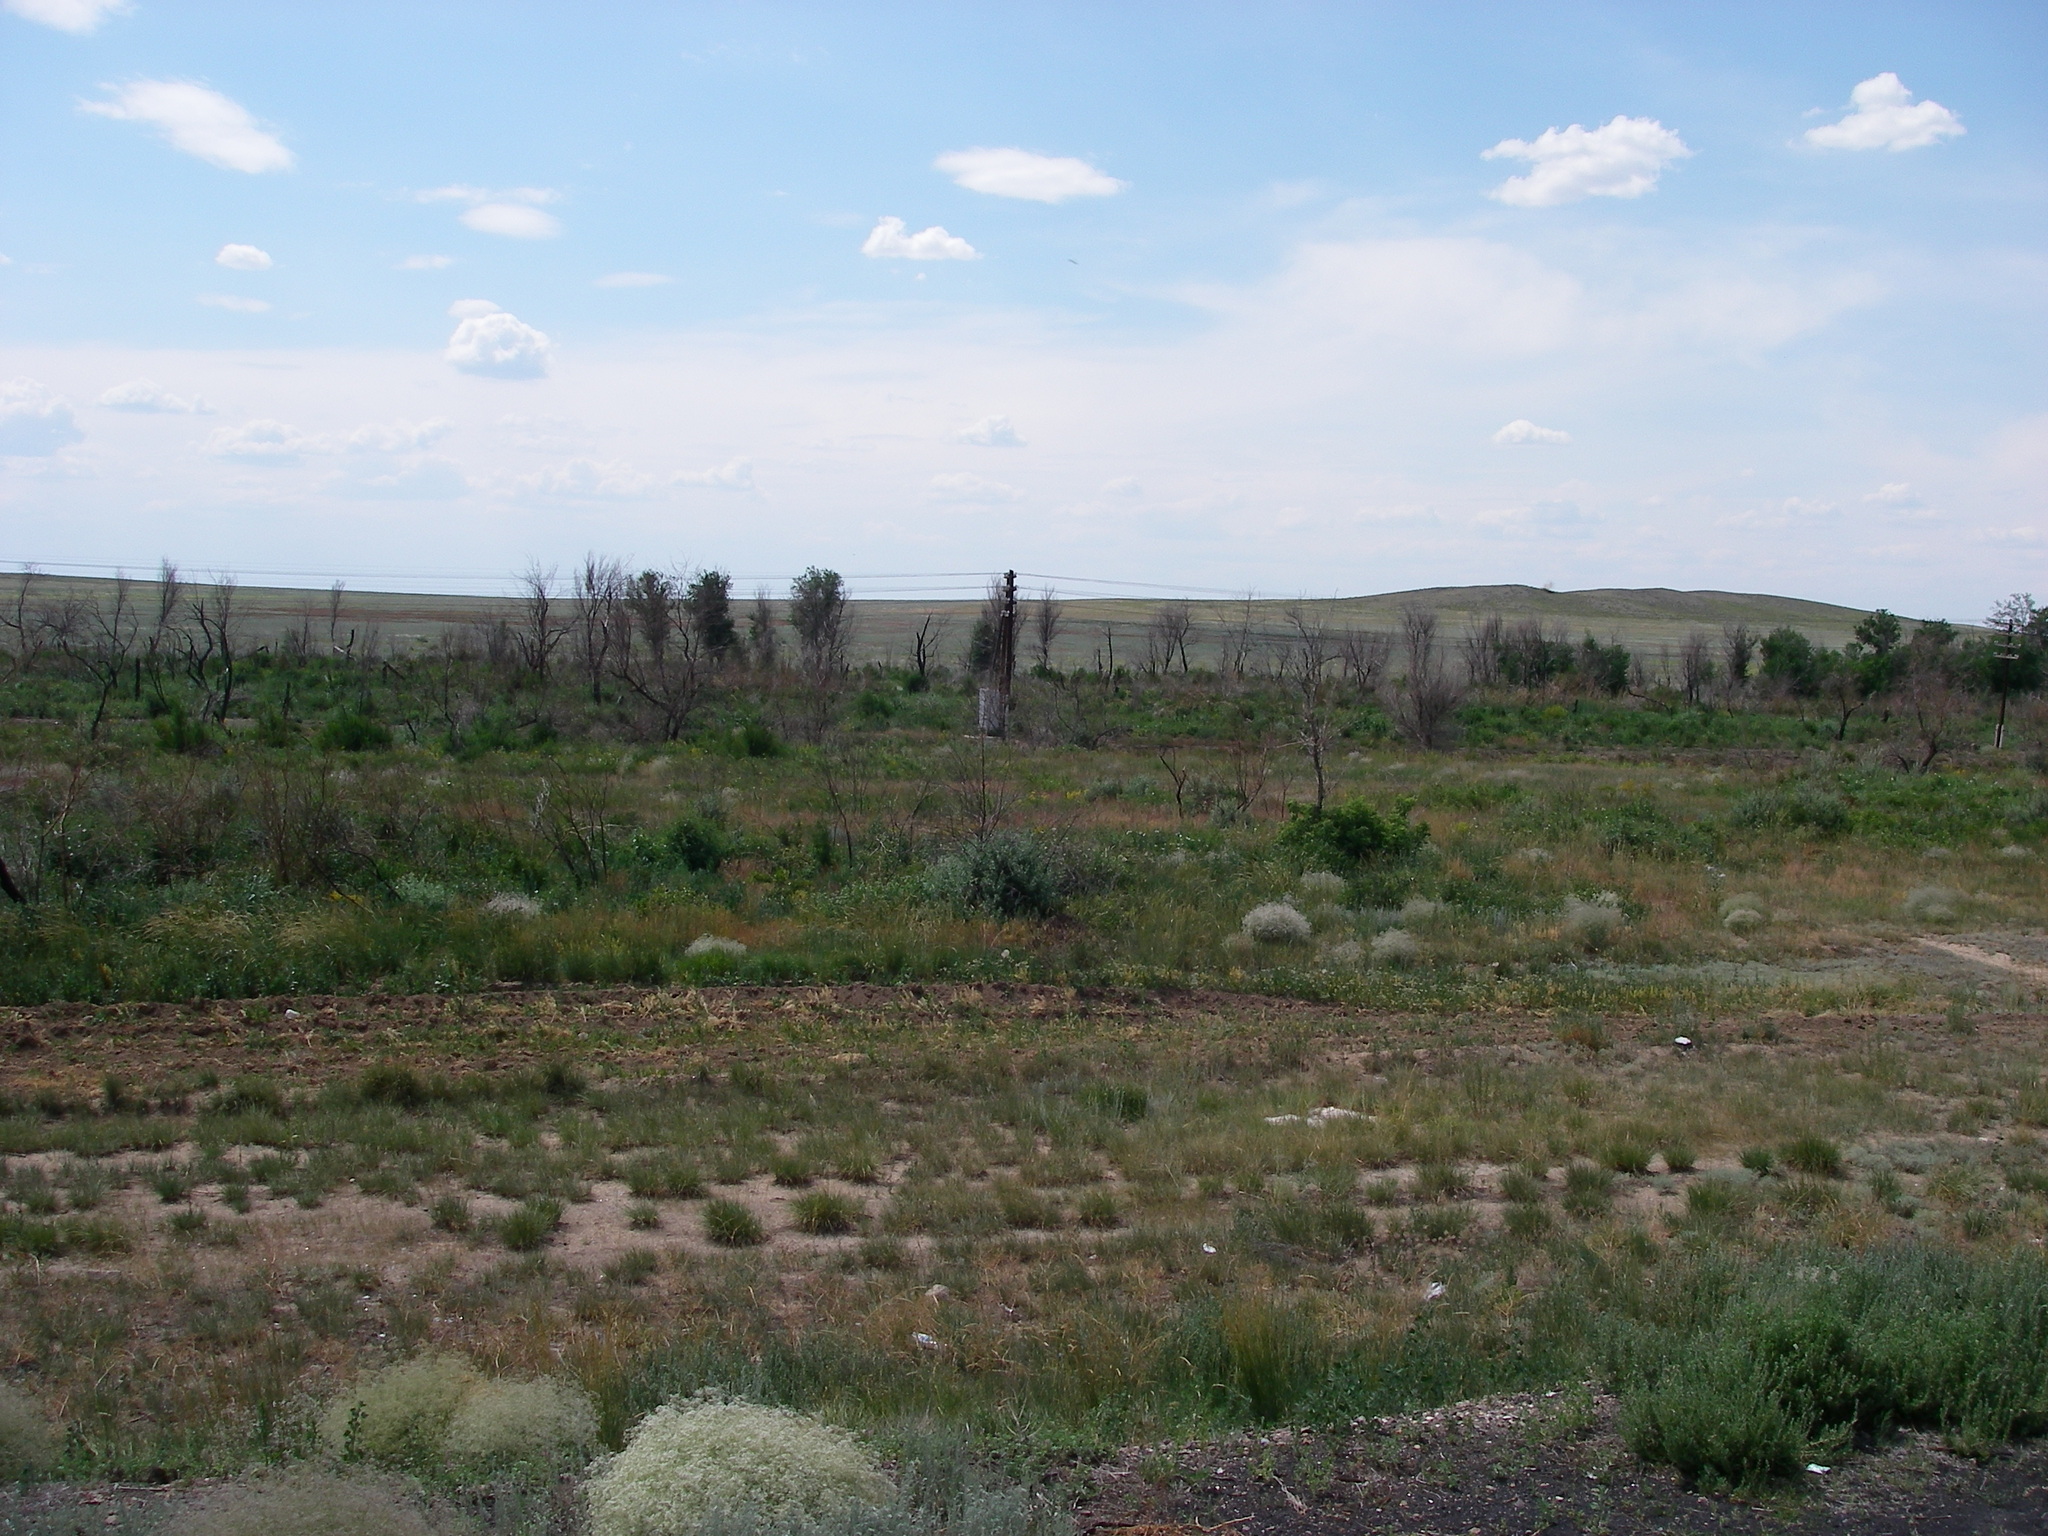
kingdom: Plantae
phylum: Tracheophyta
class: Magnoliopsida
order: Rosales
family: Ulmaceae
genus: Ulmus
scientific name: Ulmus pumila
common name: Siberian elm
